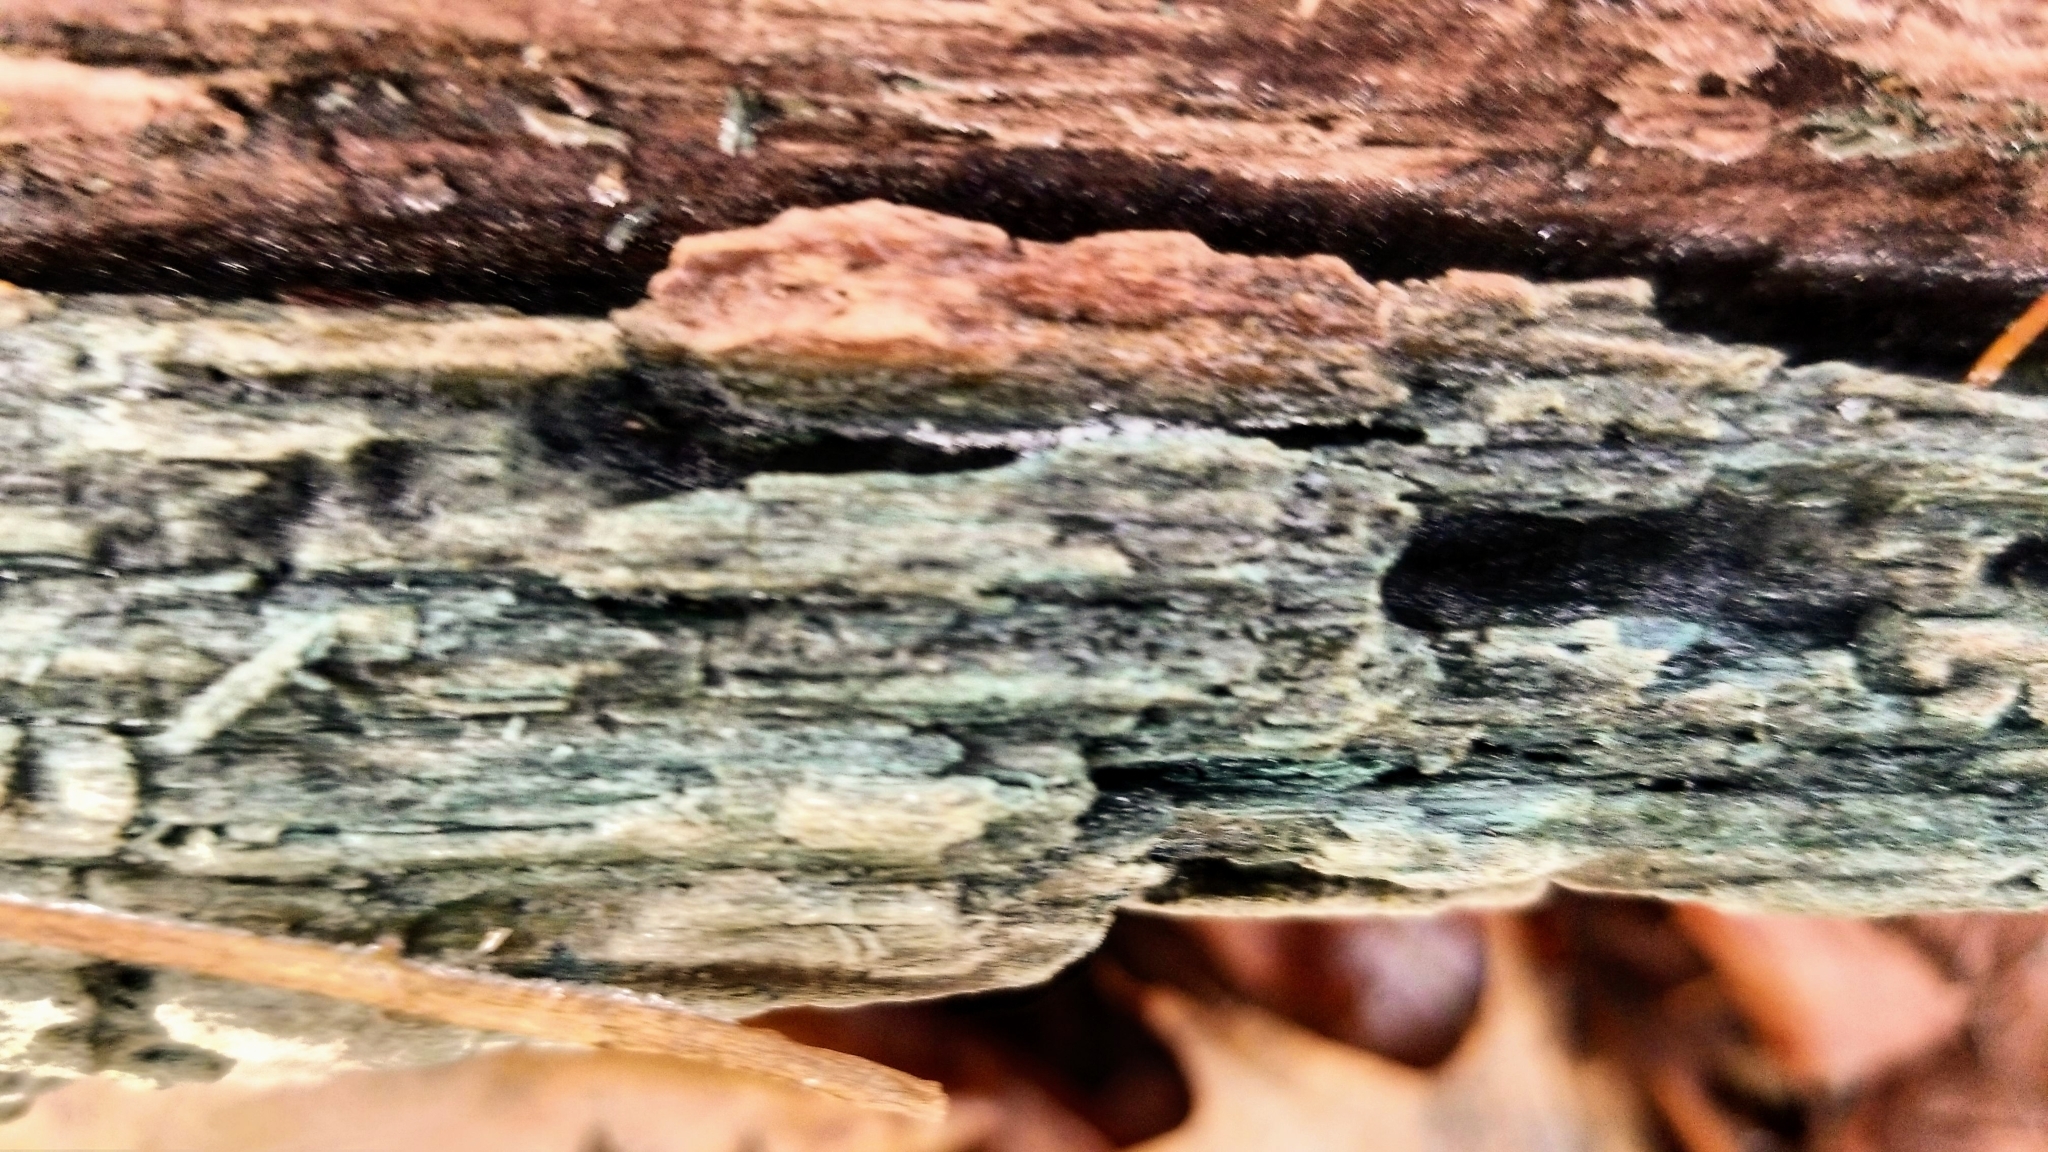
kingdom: Fungi
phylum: Ascomycota
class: Leotiomycetes
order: Helotiales
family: Chlorociboriaceae
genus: Chlorociboria
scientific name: Chlorociboria
